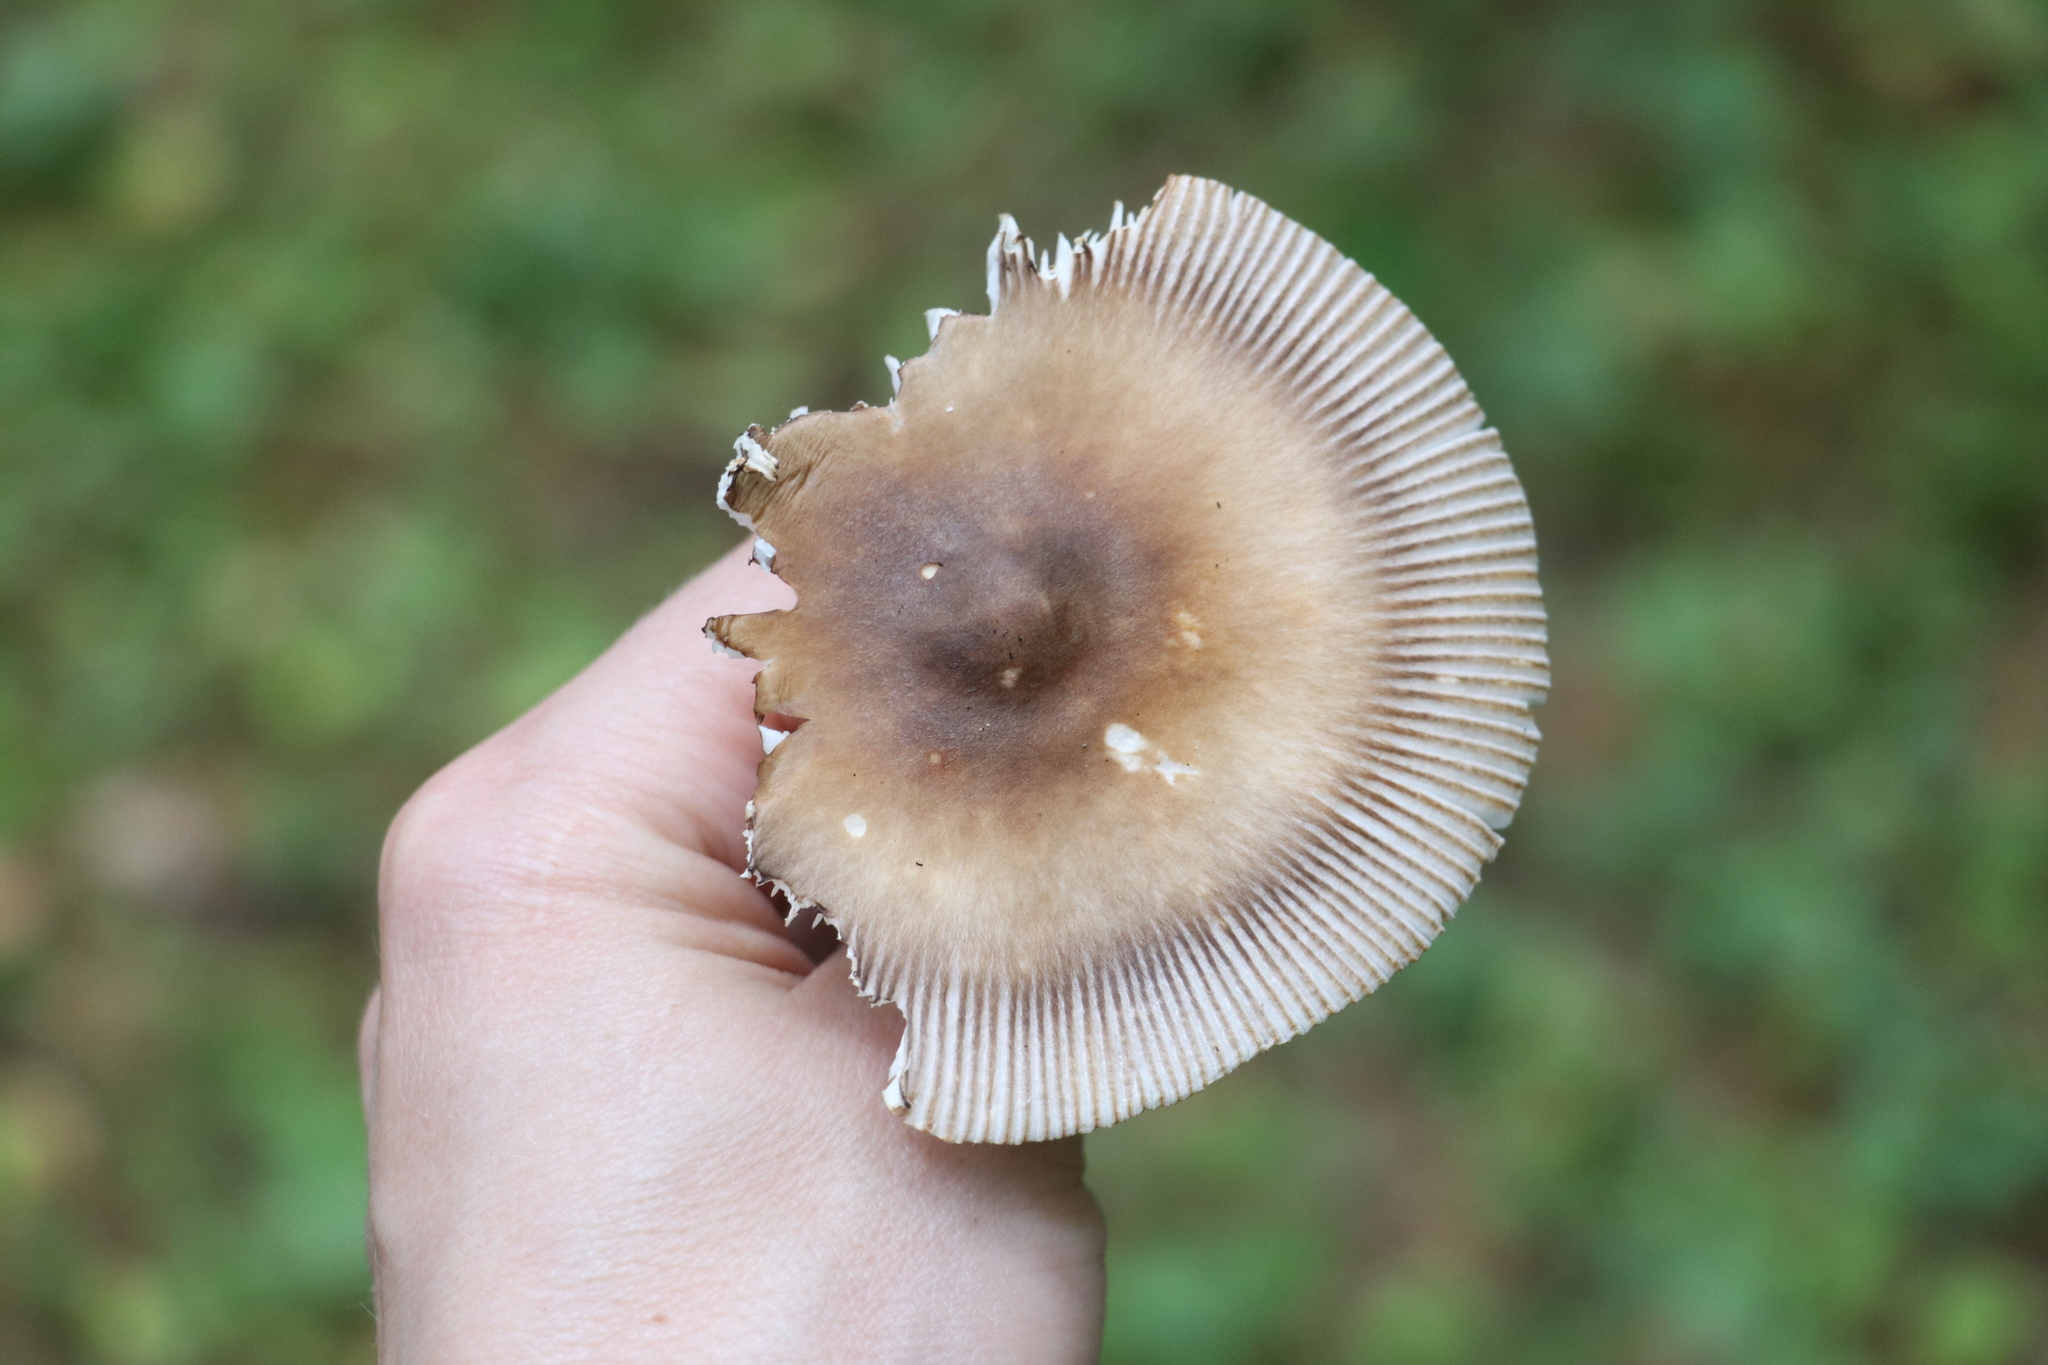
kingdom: Fungi
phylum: Basidiomycota
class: Agaricomycetes
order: Agaricales
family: Amanitaceae
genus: Amanita
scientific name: Amanita battarrae
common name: Banded amanita
